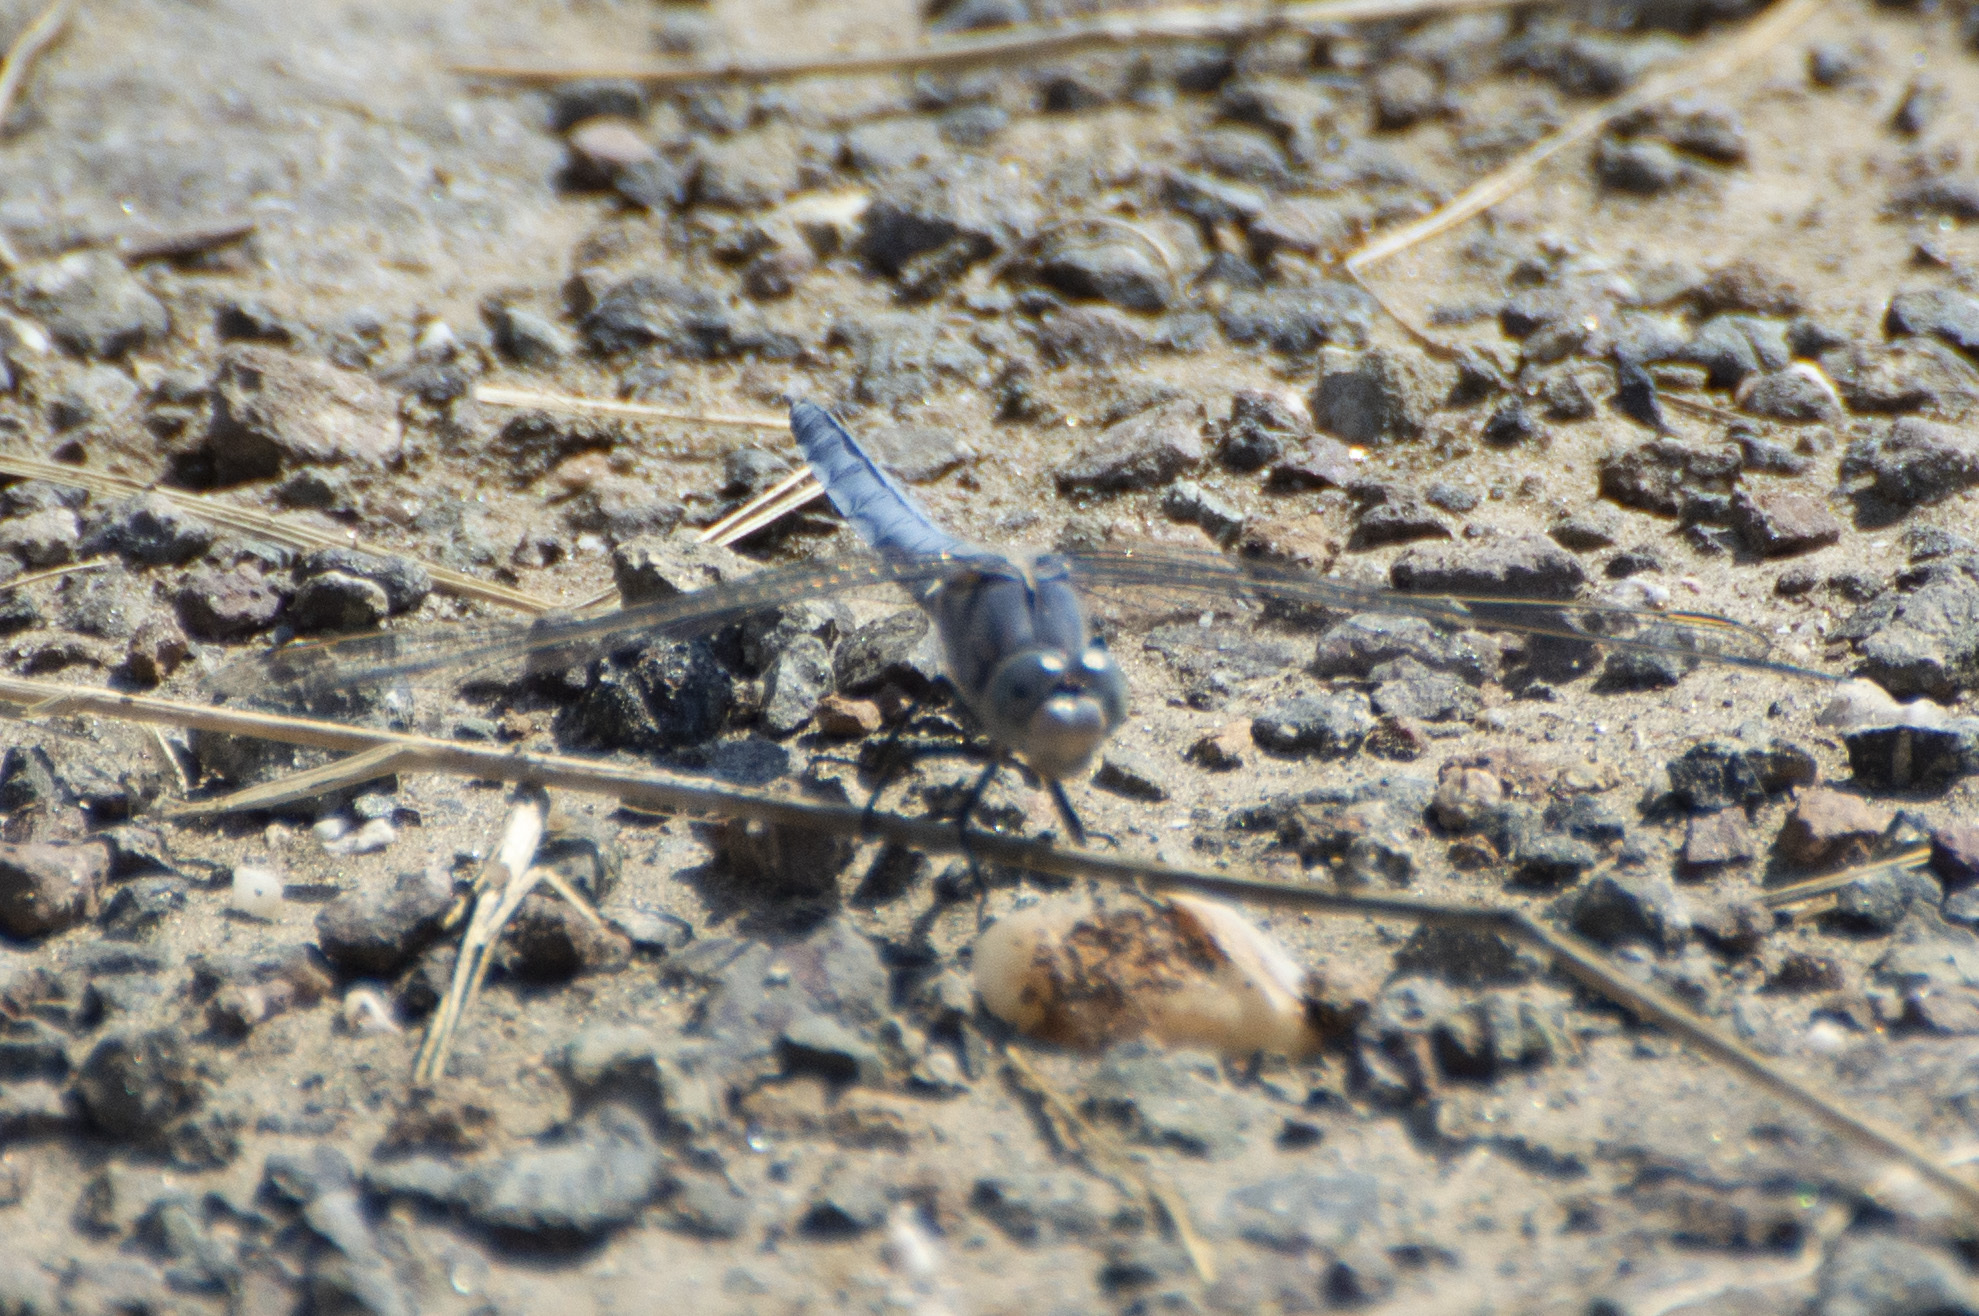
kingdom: Animalia
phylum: Arthropoda
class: Insecta
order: Odonata
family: Libellulidae
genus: Orthetrum
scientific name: Orthetrum brunneum
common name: Southern skimmer
